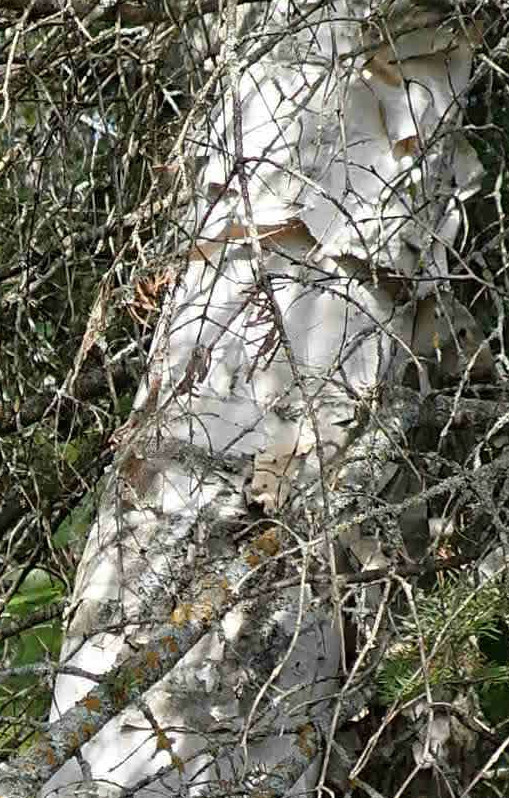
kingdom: Plantae
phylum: Tracheophyta
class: Magnoliopsida
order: Fagales
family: Betulaceae
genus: Betula
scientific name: Betula papyrifera
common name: Paper birch
